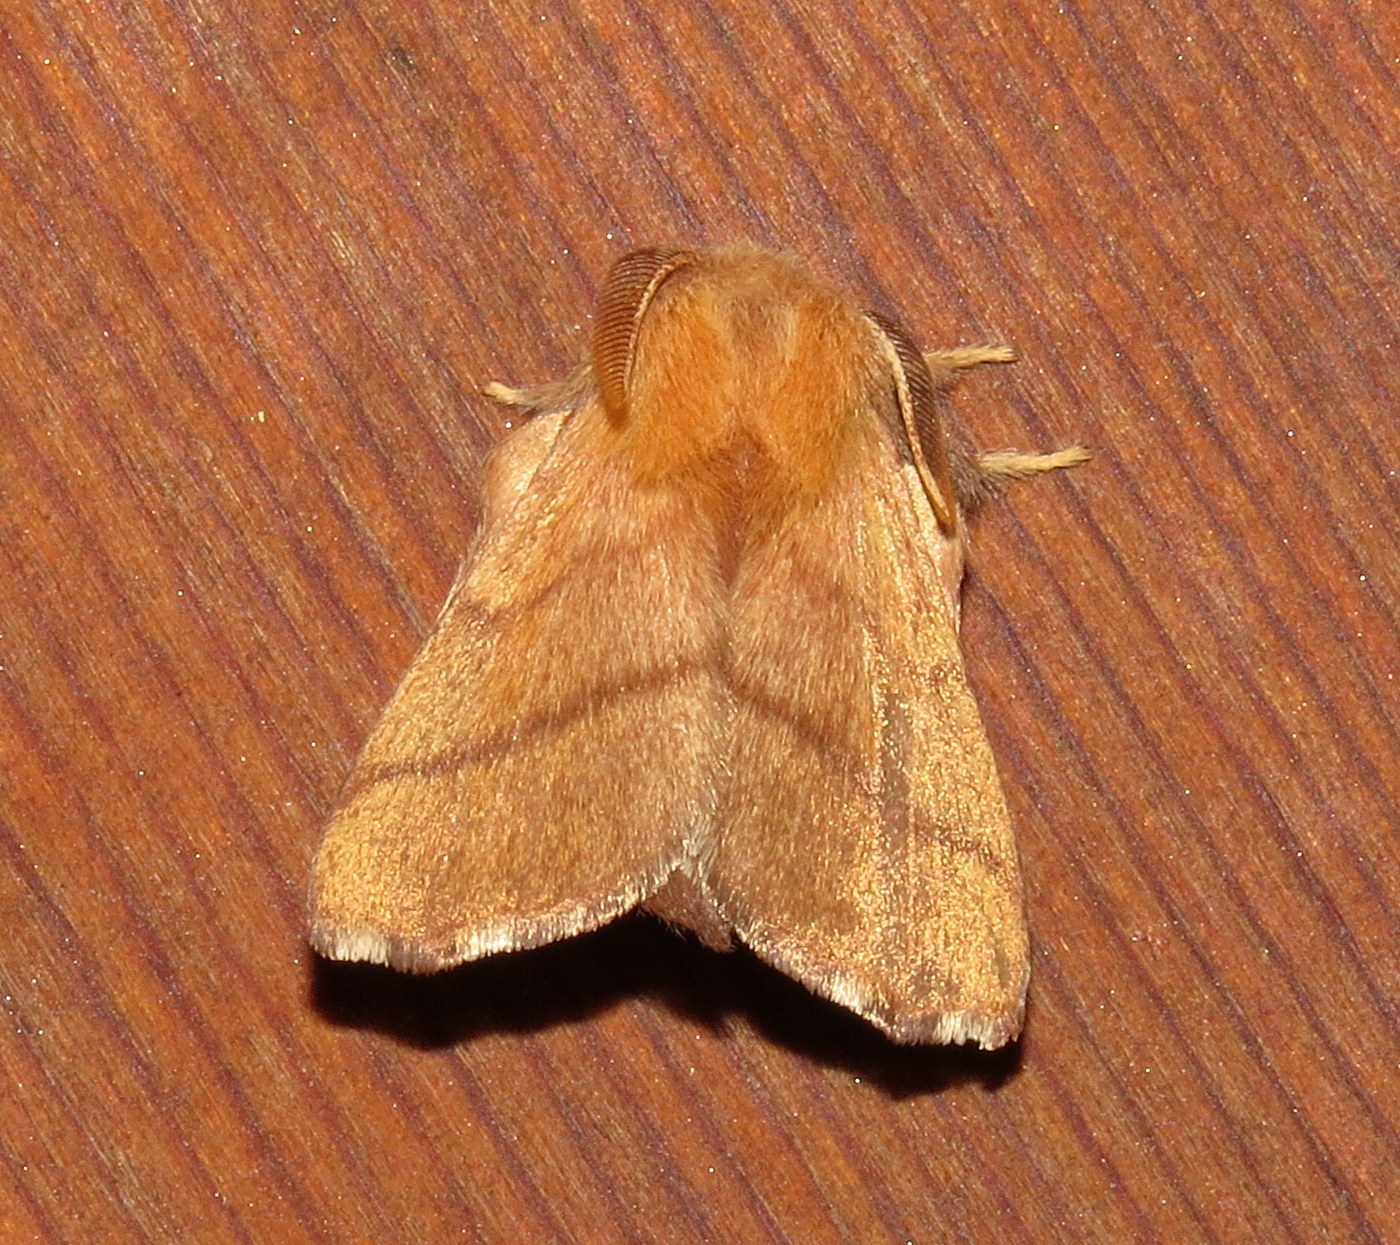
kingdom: Animalia
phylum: Arthropoda
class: Insecta
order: Lepidoptera
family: Lasiocampidae
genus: Malacosoma
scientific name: Malacosoma disstria
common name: Forest tent caterpillar
